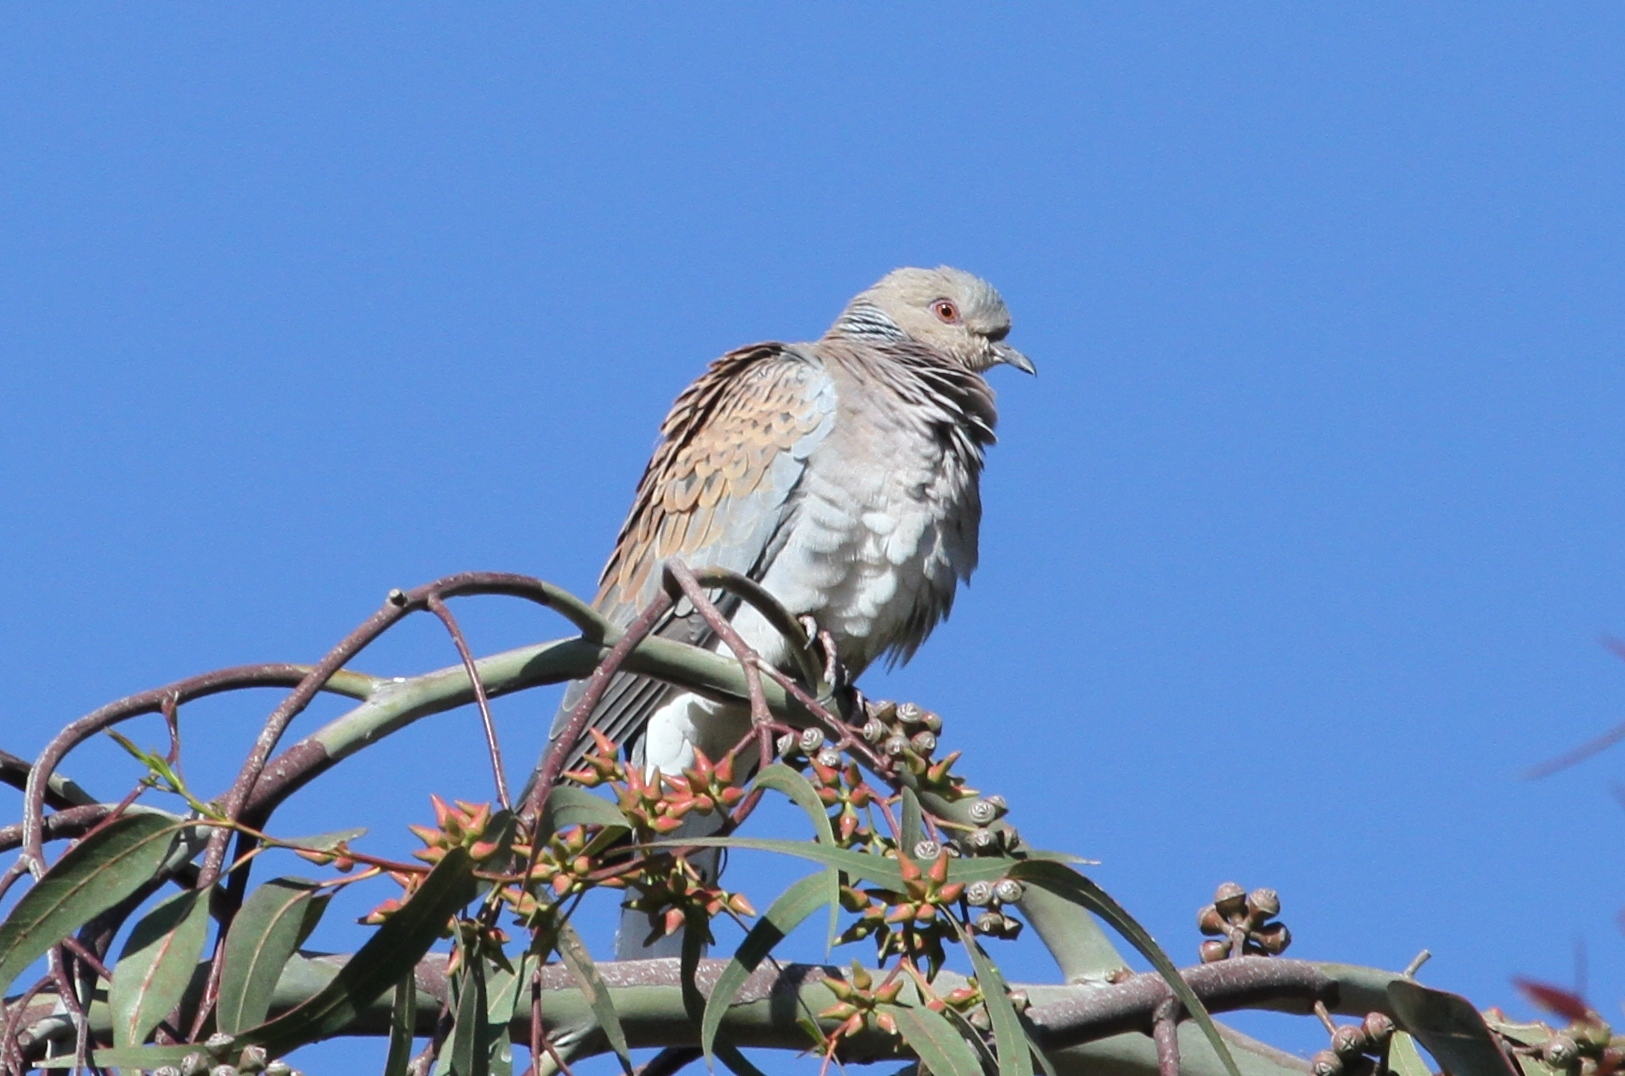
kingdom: Animalia
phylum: Chordata
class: Aves
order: Columbiformes
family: Columbidae
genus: Streptopelia
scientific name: Streptopelia turtur
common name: European turtle dove
